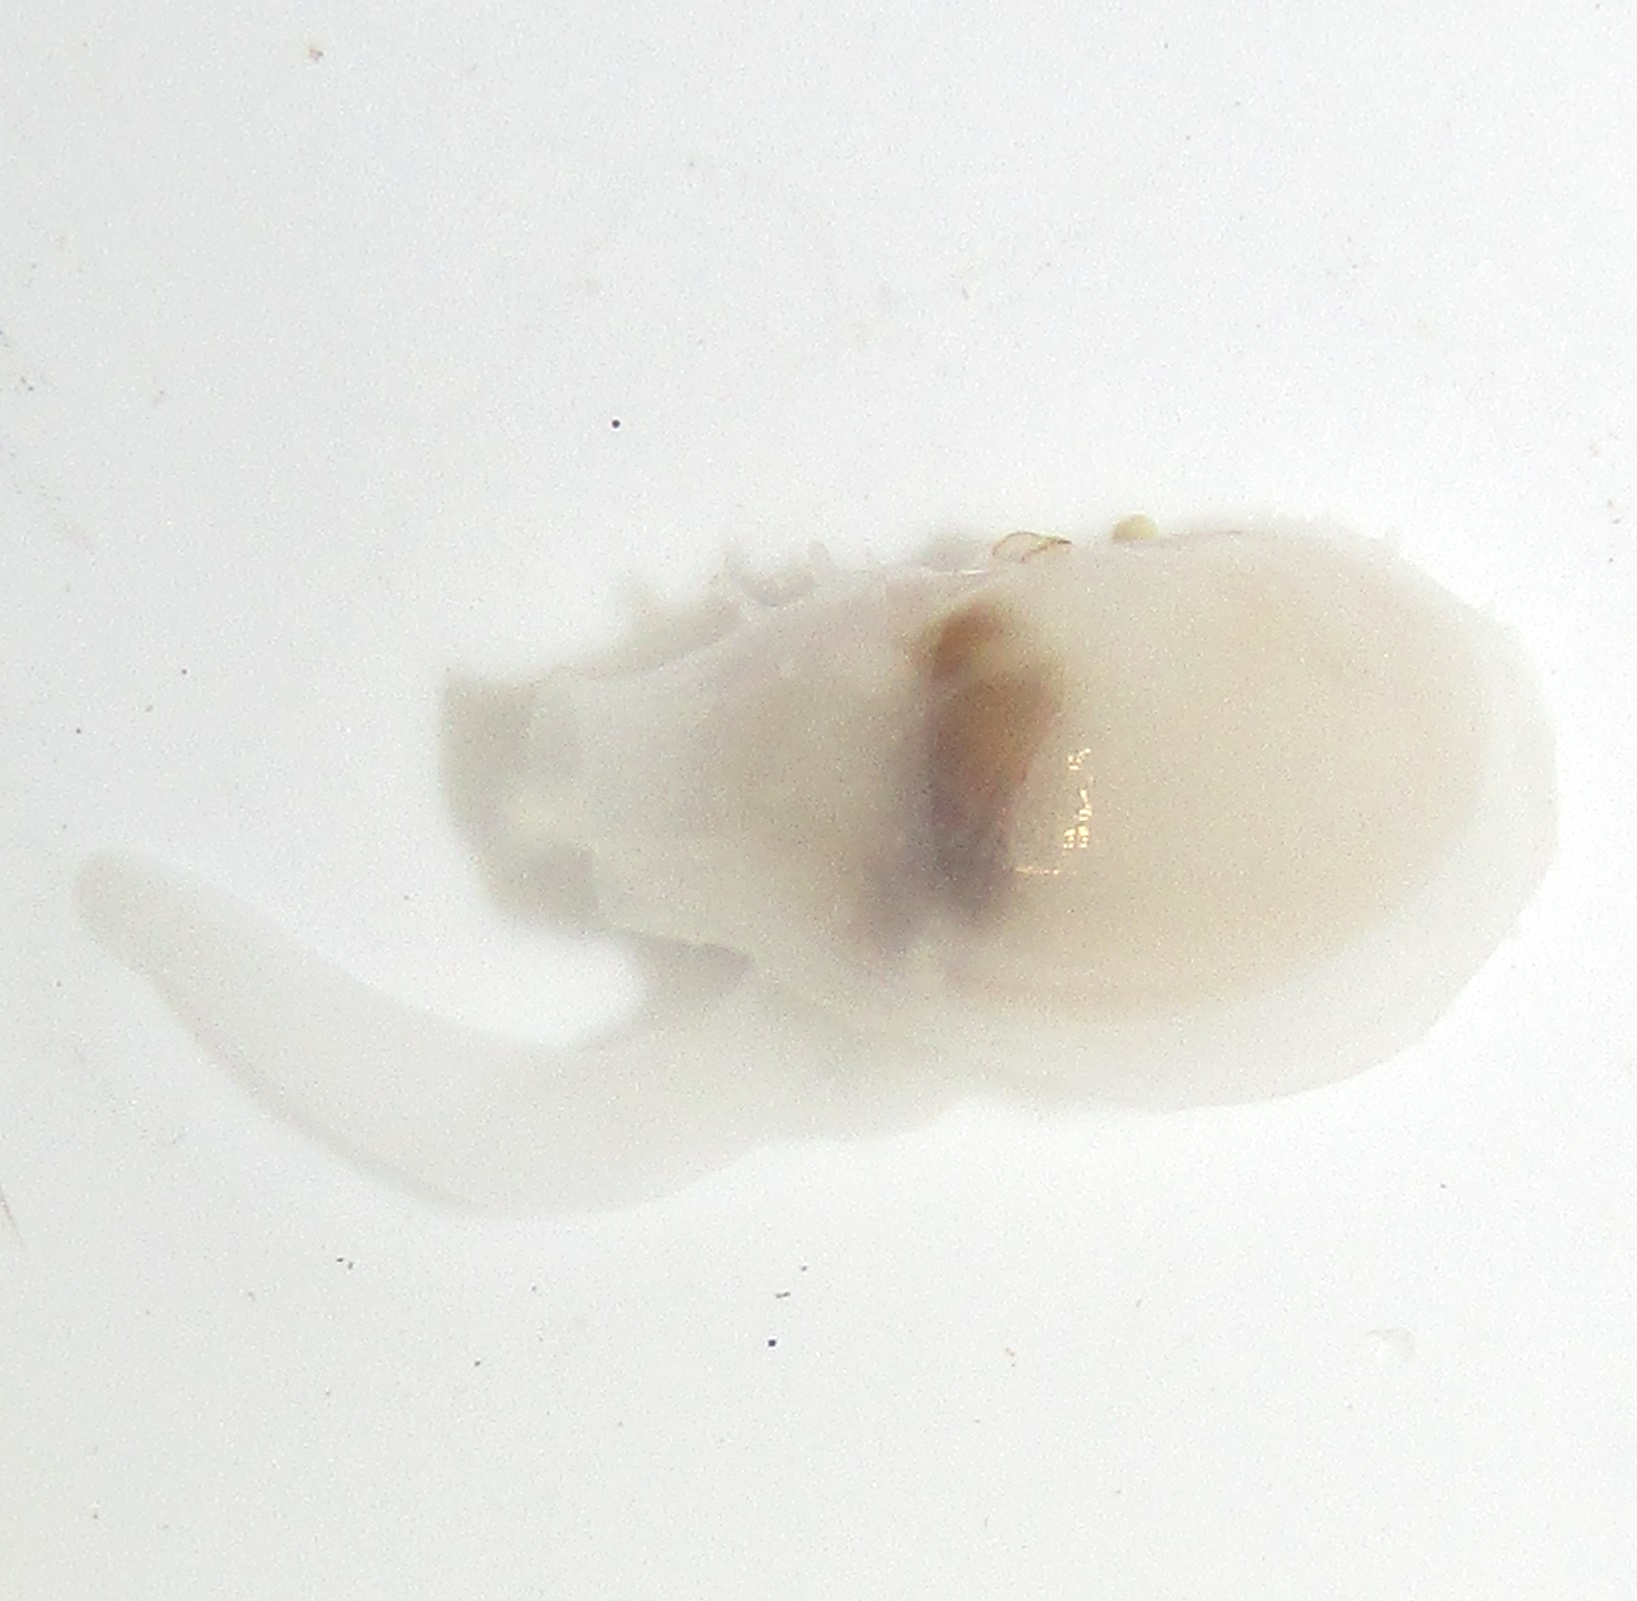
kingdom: Animalia
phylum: Mollusca
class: Bivalvia
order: Galeommatida
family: Galeommatidae
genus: Scintilla
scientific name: Scintilla stevensoni
